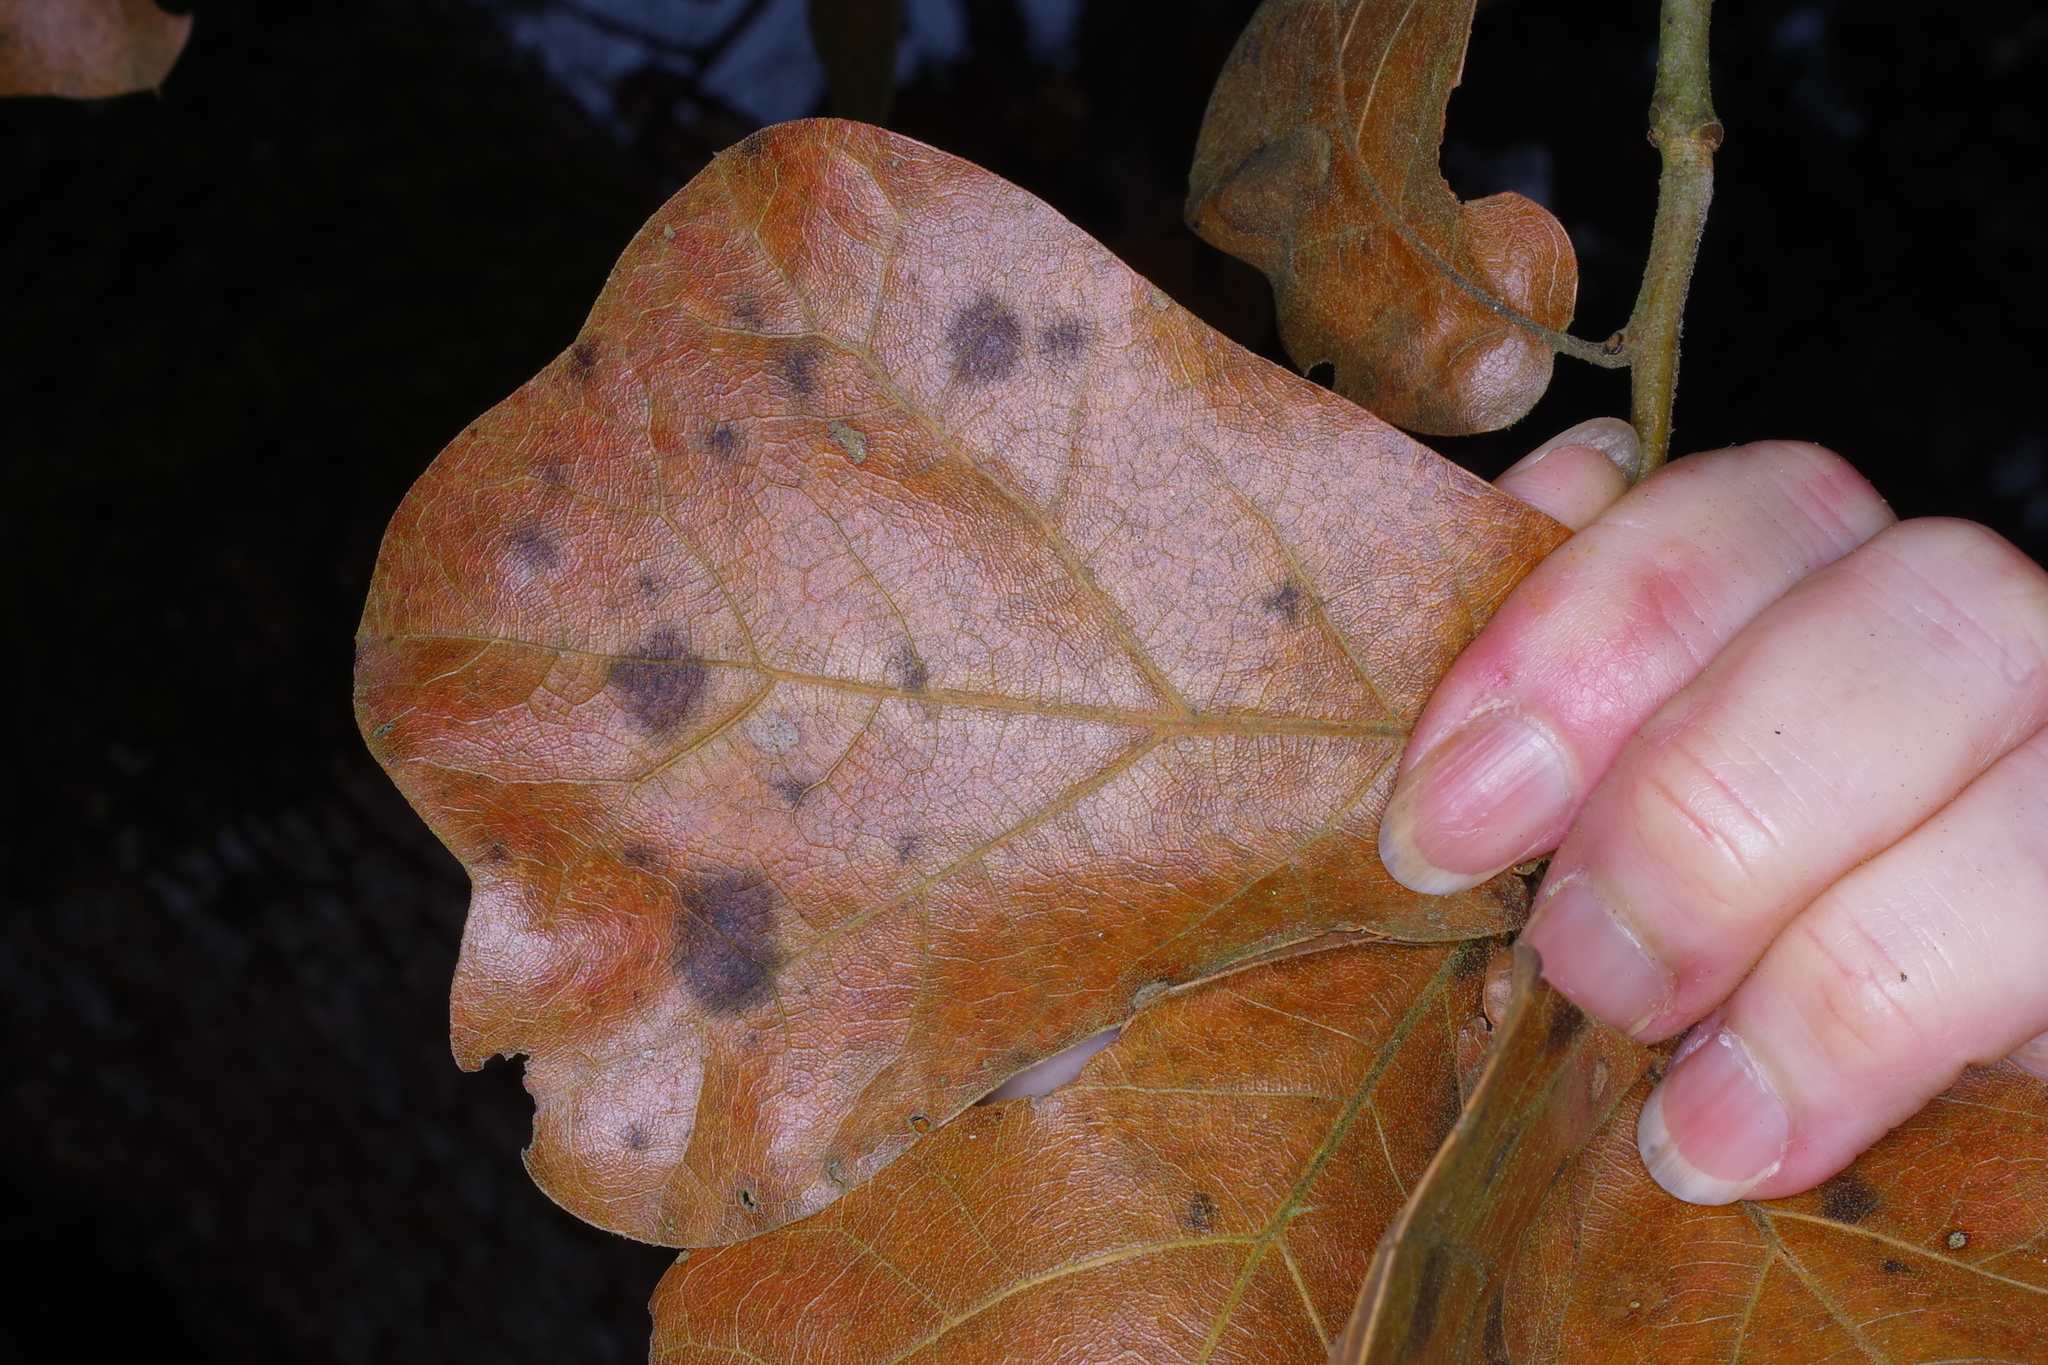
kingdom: Plantae
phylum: Tracheophyta
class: Magnoliopsida
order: Fagales
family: Fagaceae
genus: Quercus
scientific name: Quercus marilandica
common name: Blackjack oak
